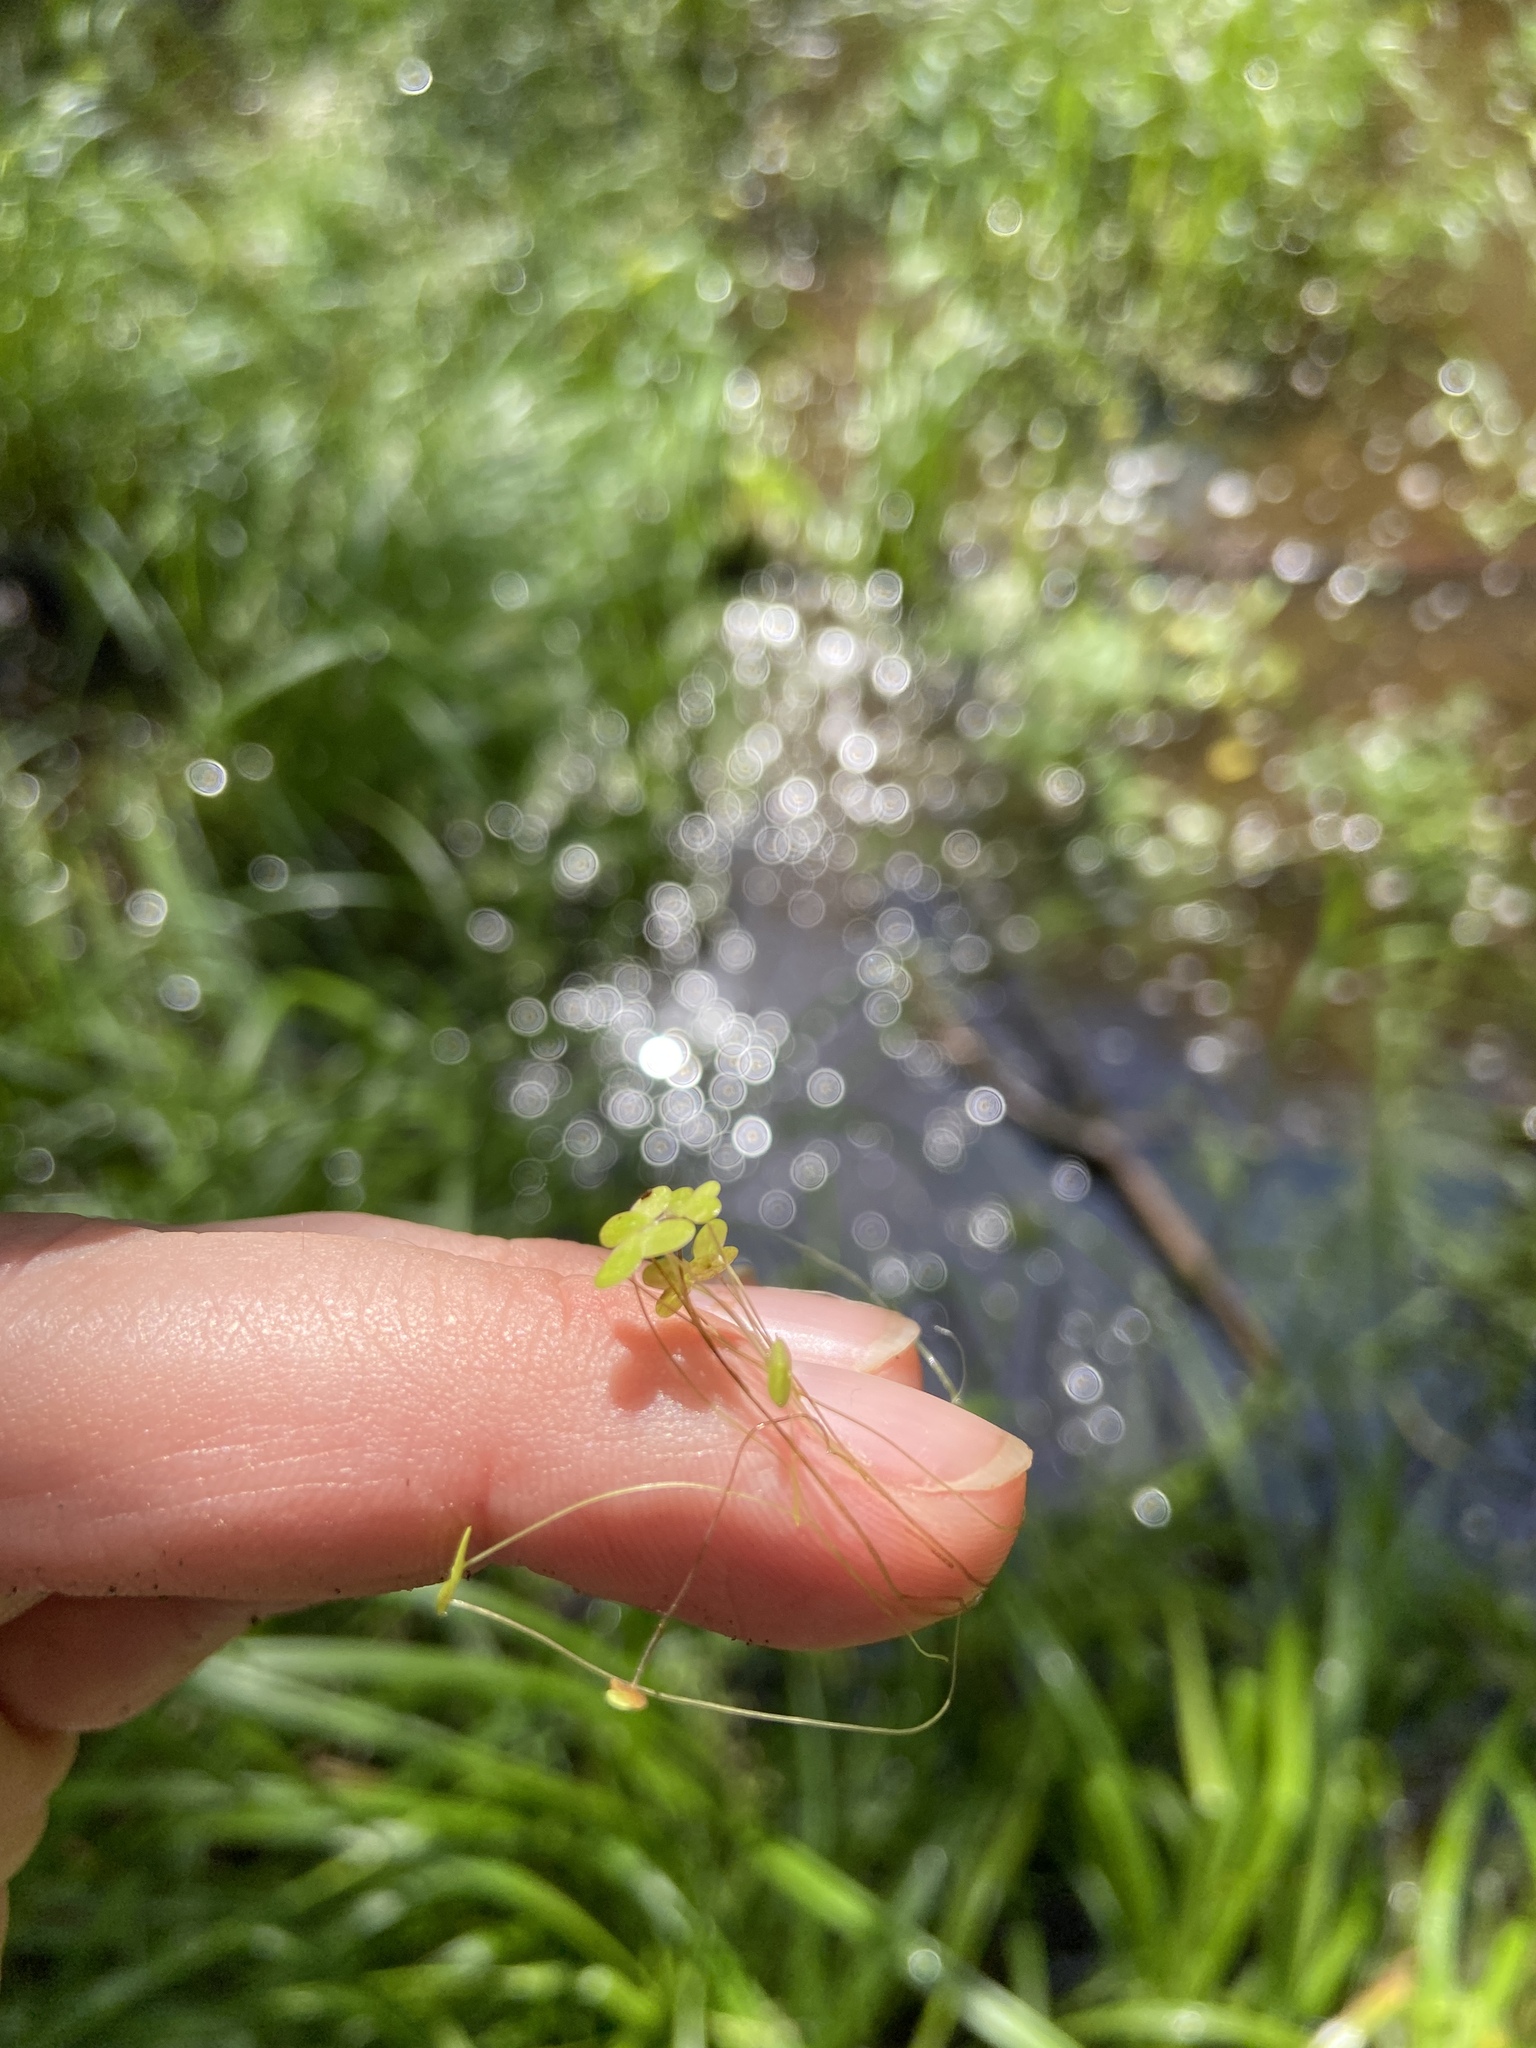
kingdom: Plantae
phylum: Tracheophyta
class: Liliopsida
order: Alismatales
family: Araceae
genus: Lemna
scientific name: Lemna minor
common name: Common duckweed
